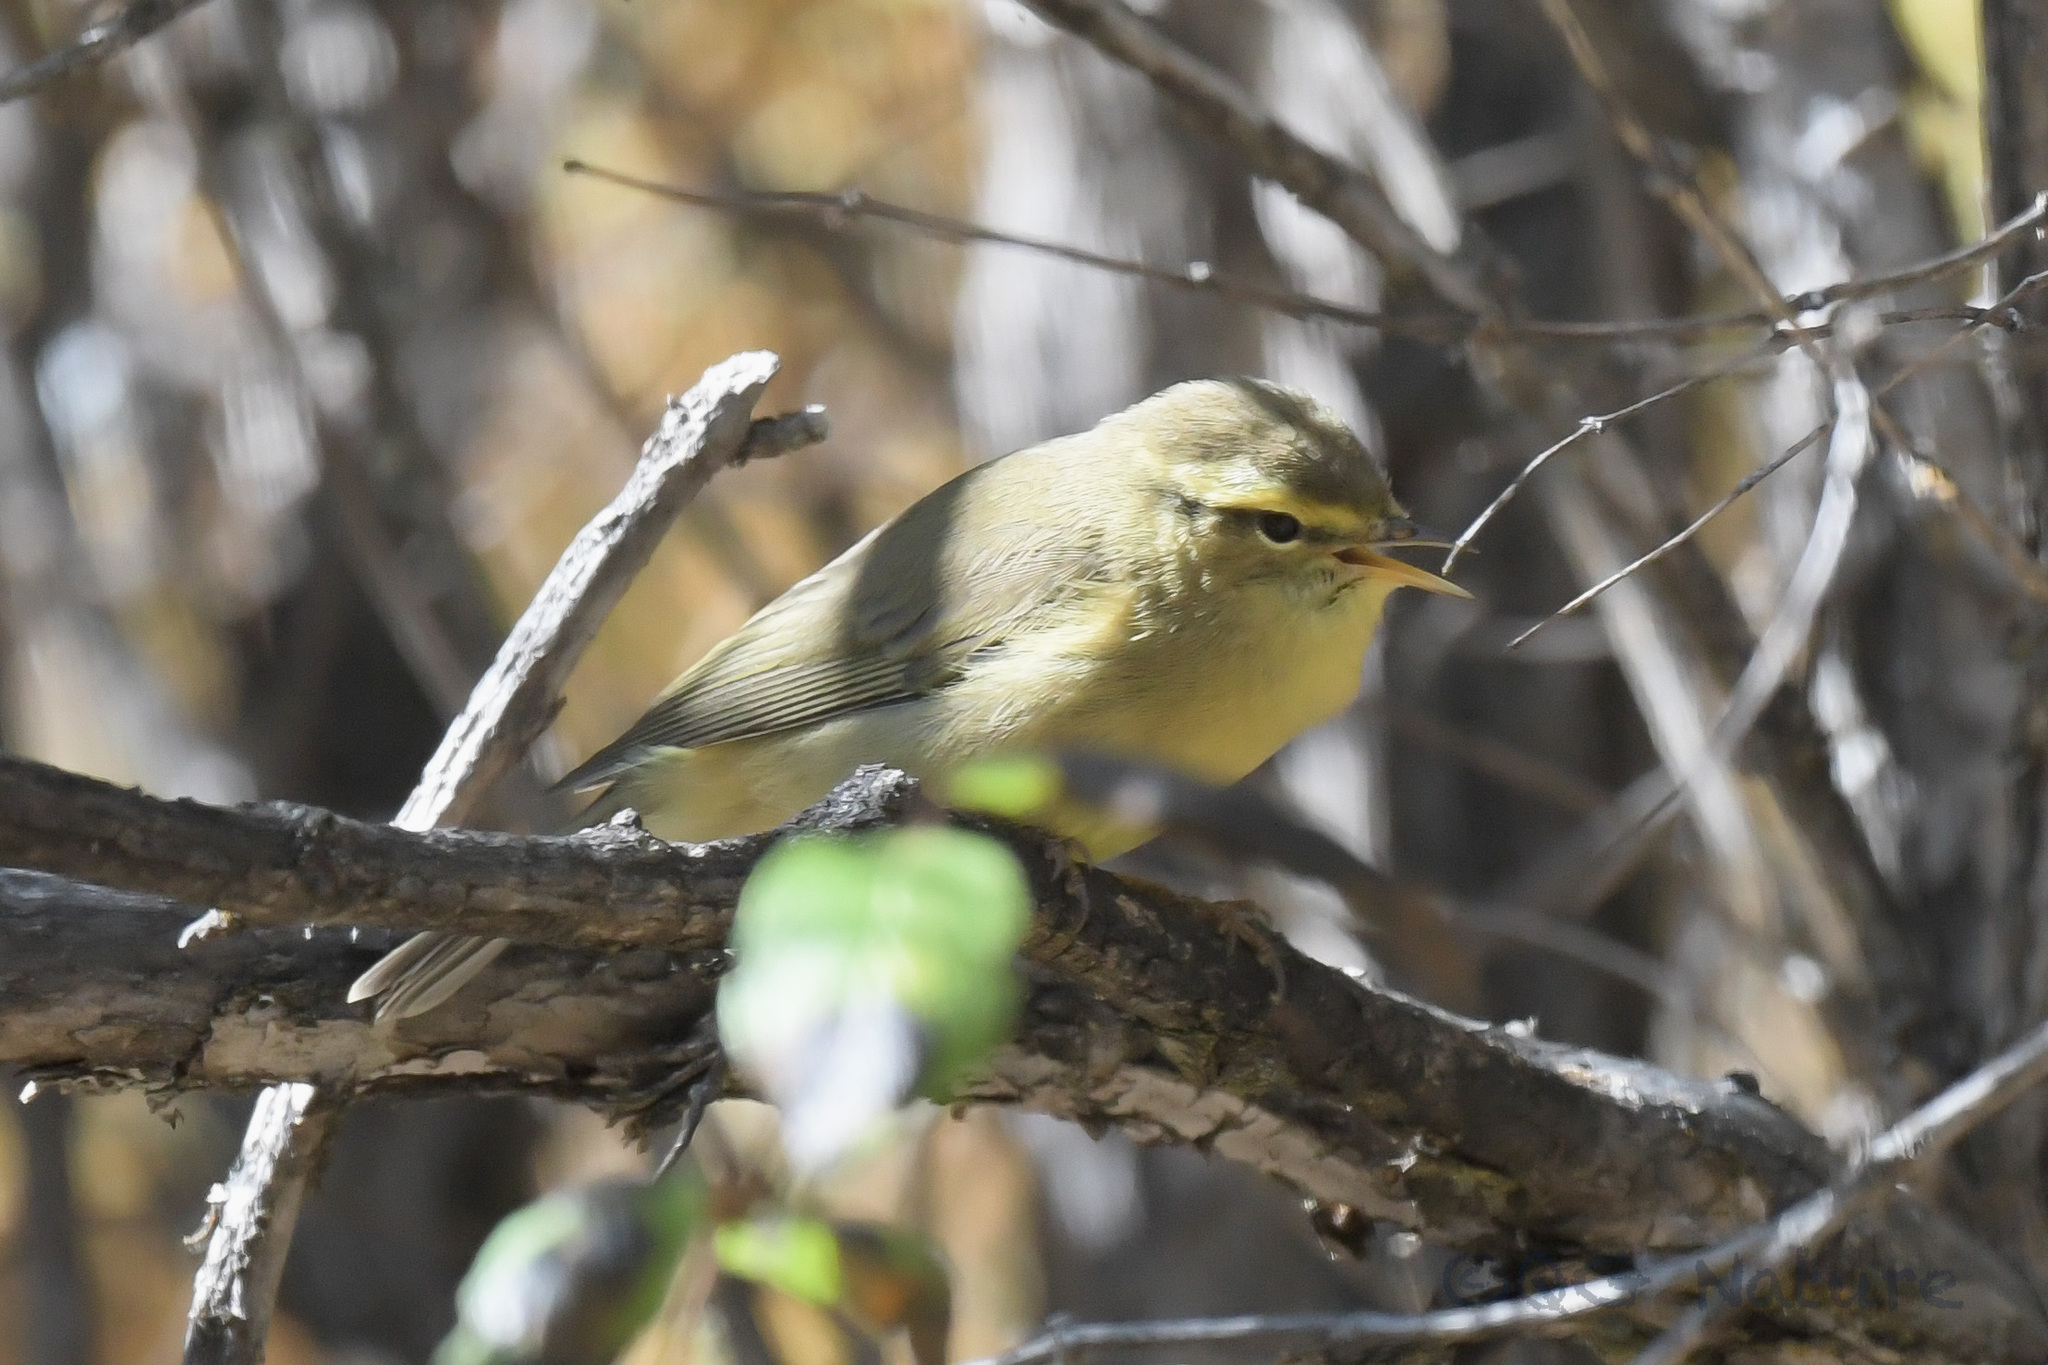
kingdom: Animalia
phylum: Chordata
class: Aves
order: Passeriformes
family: Phylloscopidae
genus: Phylloscopus
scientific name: Phylloscopus affinis
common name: Tickell's leaf warbler
